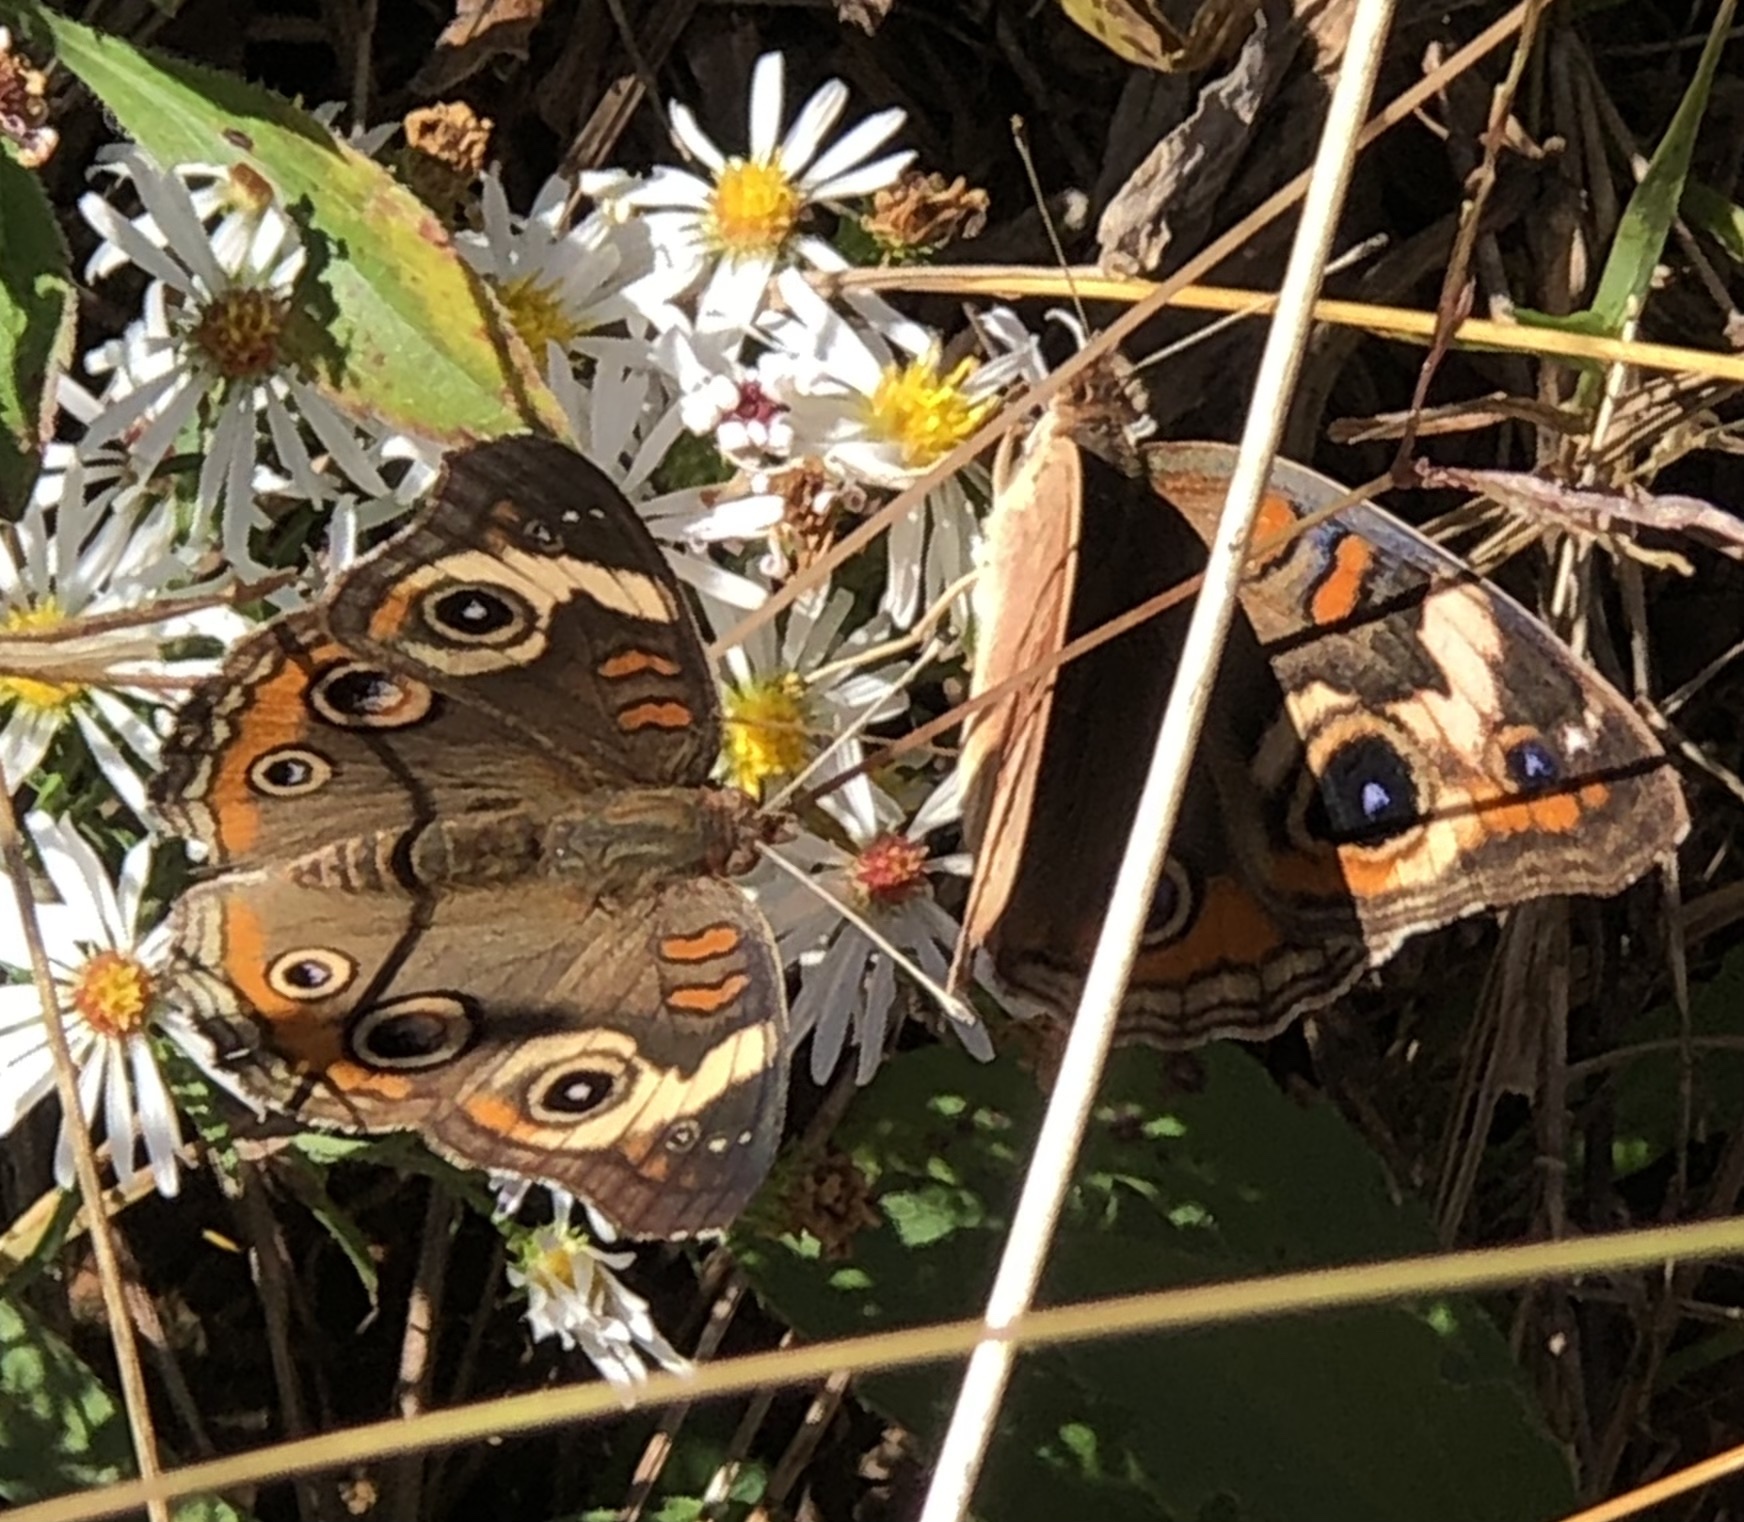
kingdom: Animalia
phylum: Arthropoda
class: Insecta
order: Lepidoptera
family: Nymphalidae
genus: Junonia
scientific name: Junonia coenia
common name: Common buckeye
